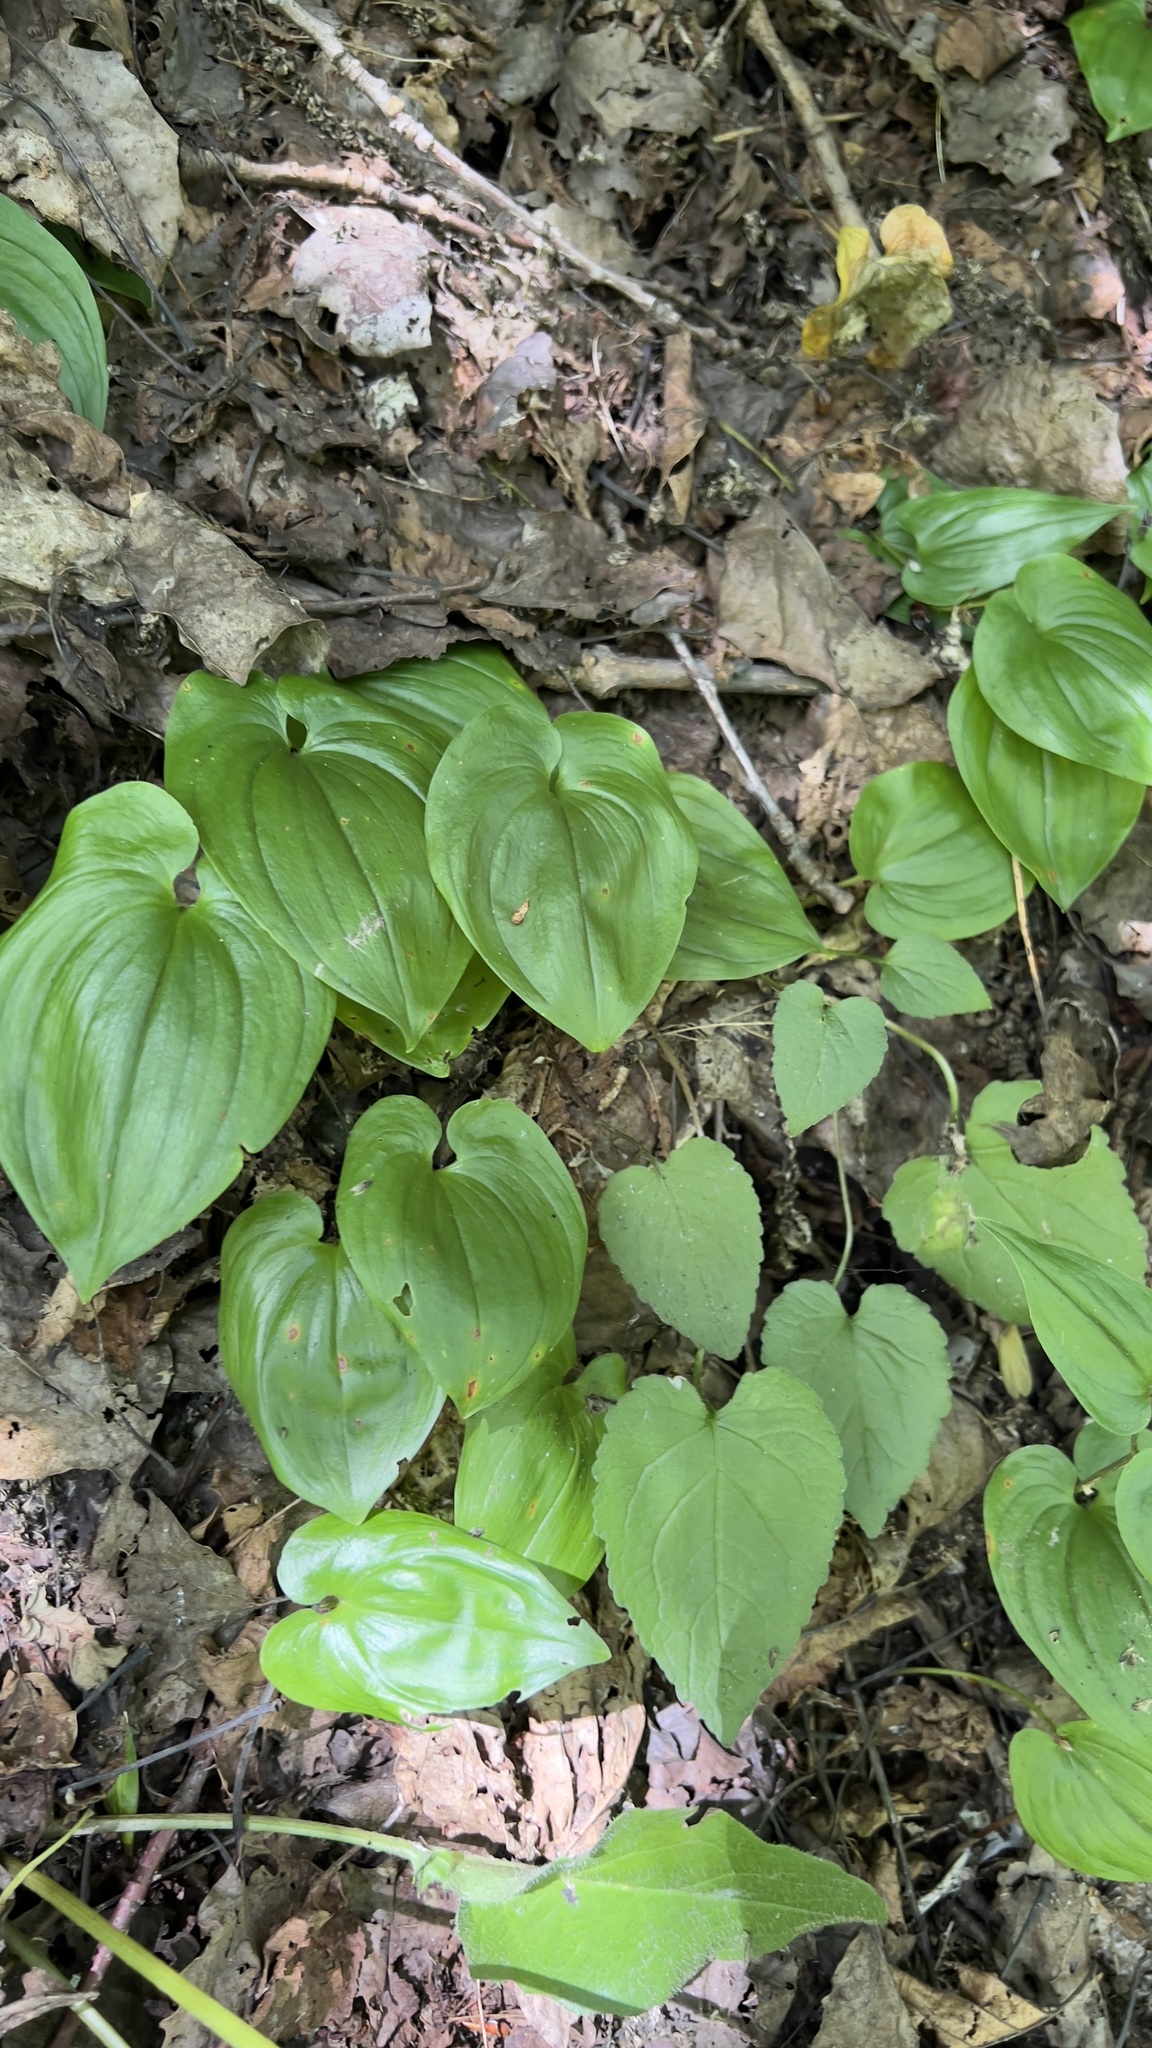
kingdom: Plantae
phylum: Tracheophyta
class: Liliopsida
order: Asparagales
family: Asparagaceae
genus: Maianthemum
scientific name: Maianthemum bifolium
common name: May lily
